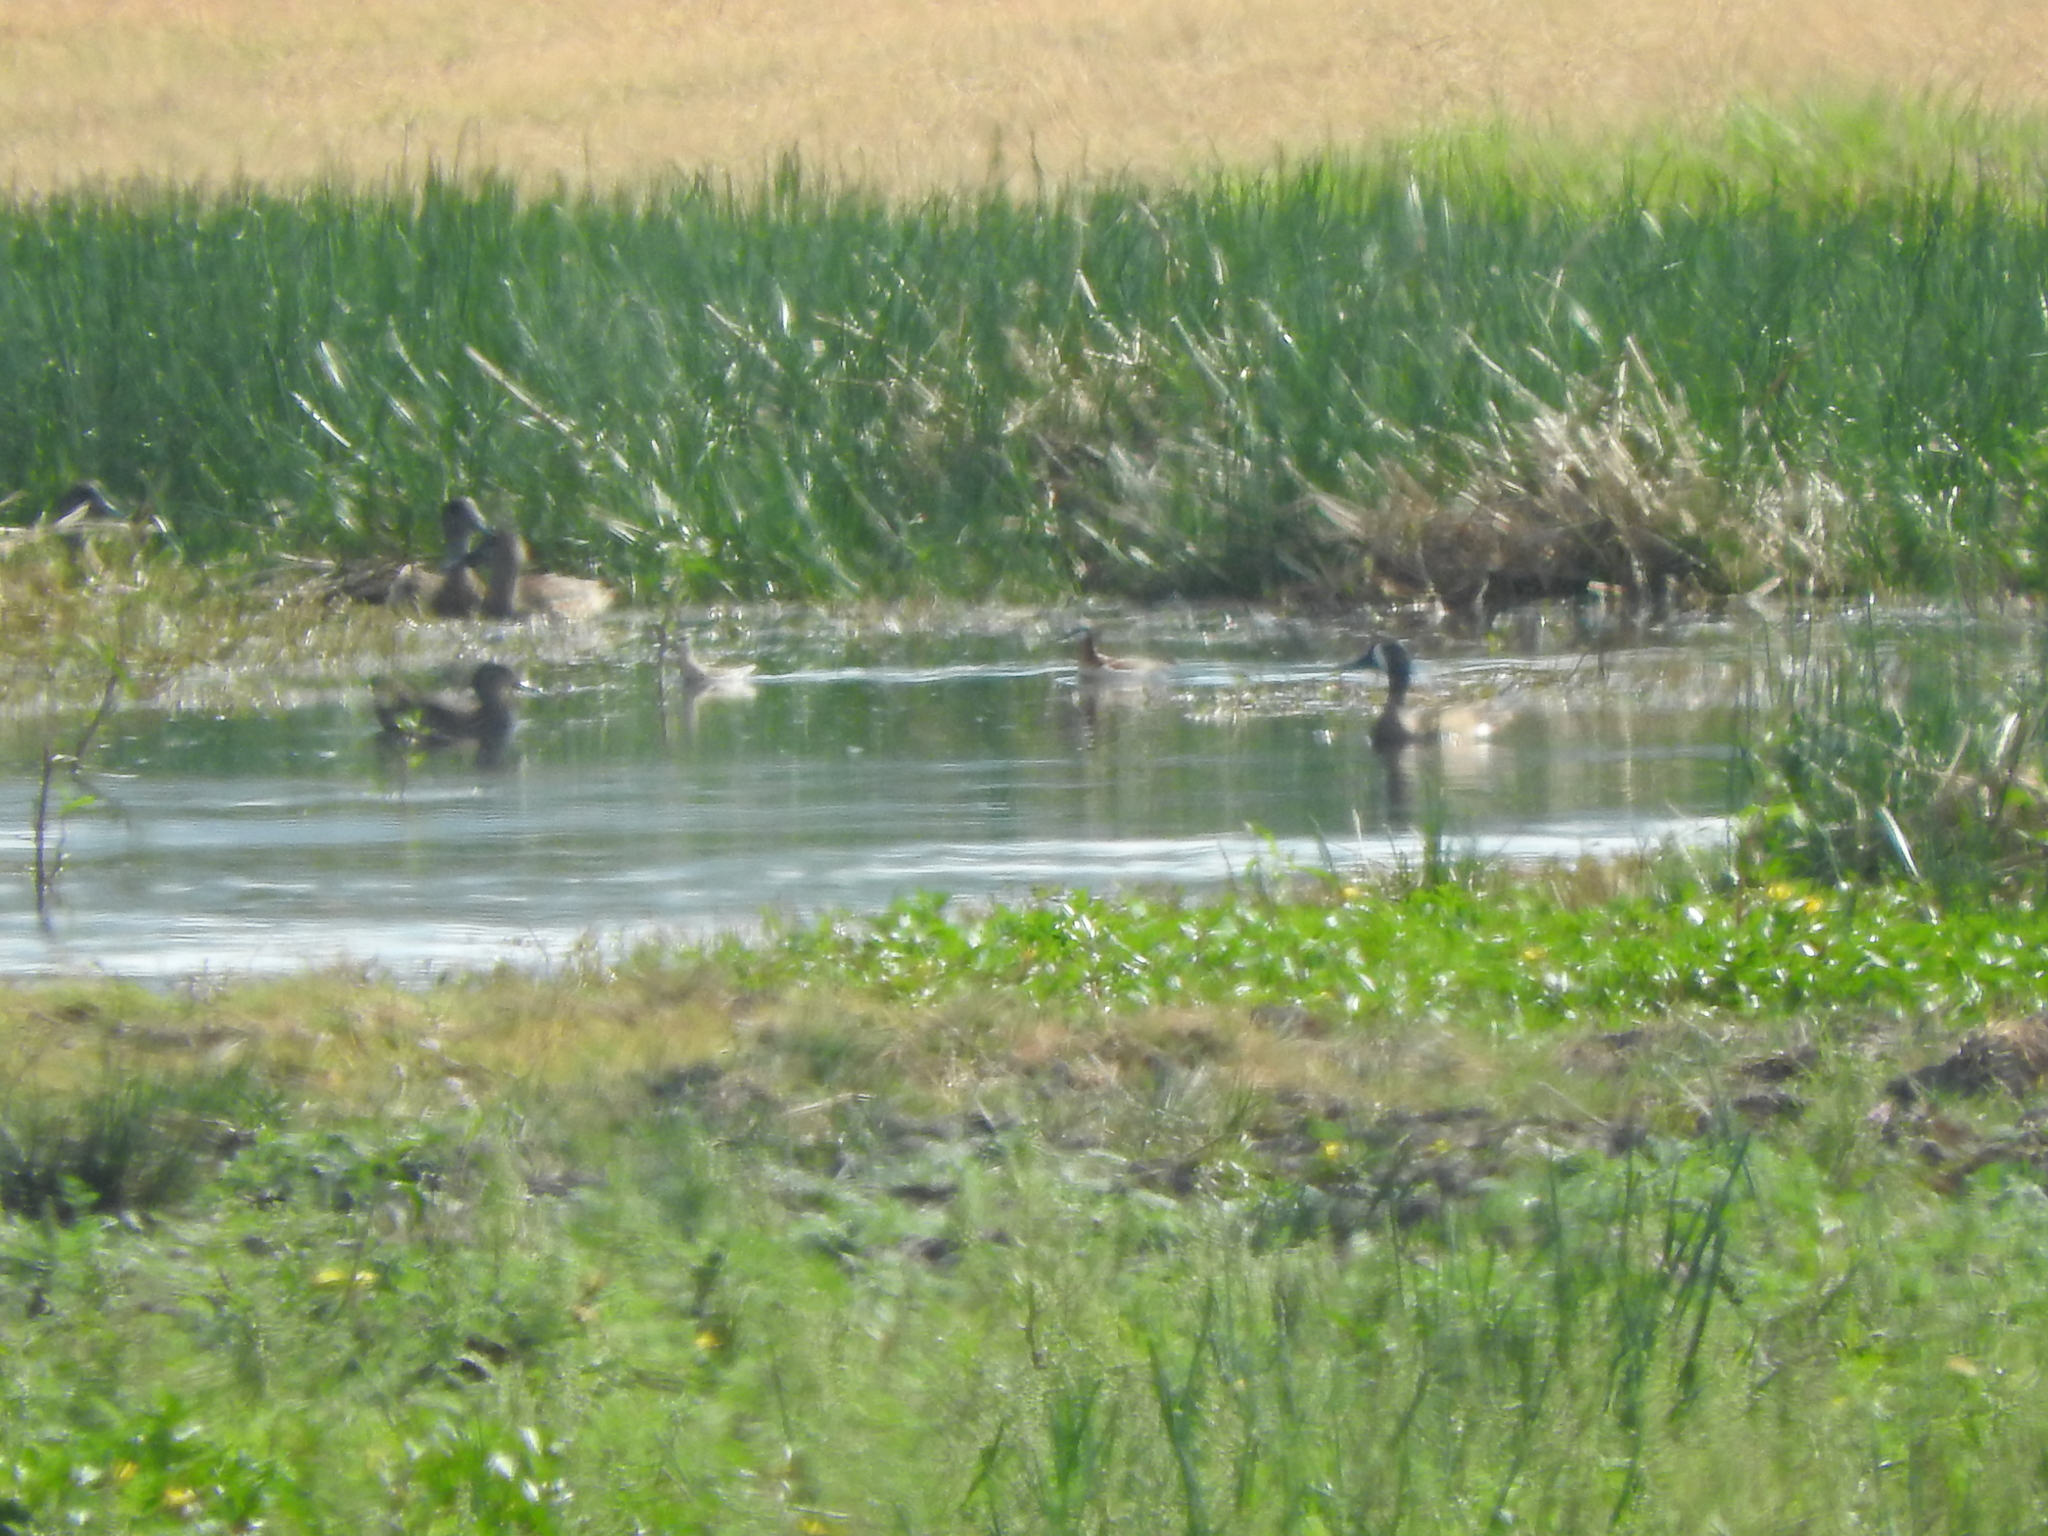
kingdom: Animalia
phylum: Chordata
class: Aves
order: Charadriiformes
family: Scolopacidae
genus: Phalaropus
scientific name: Phalaropus tricolor
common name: Wilson's phalarope
